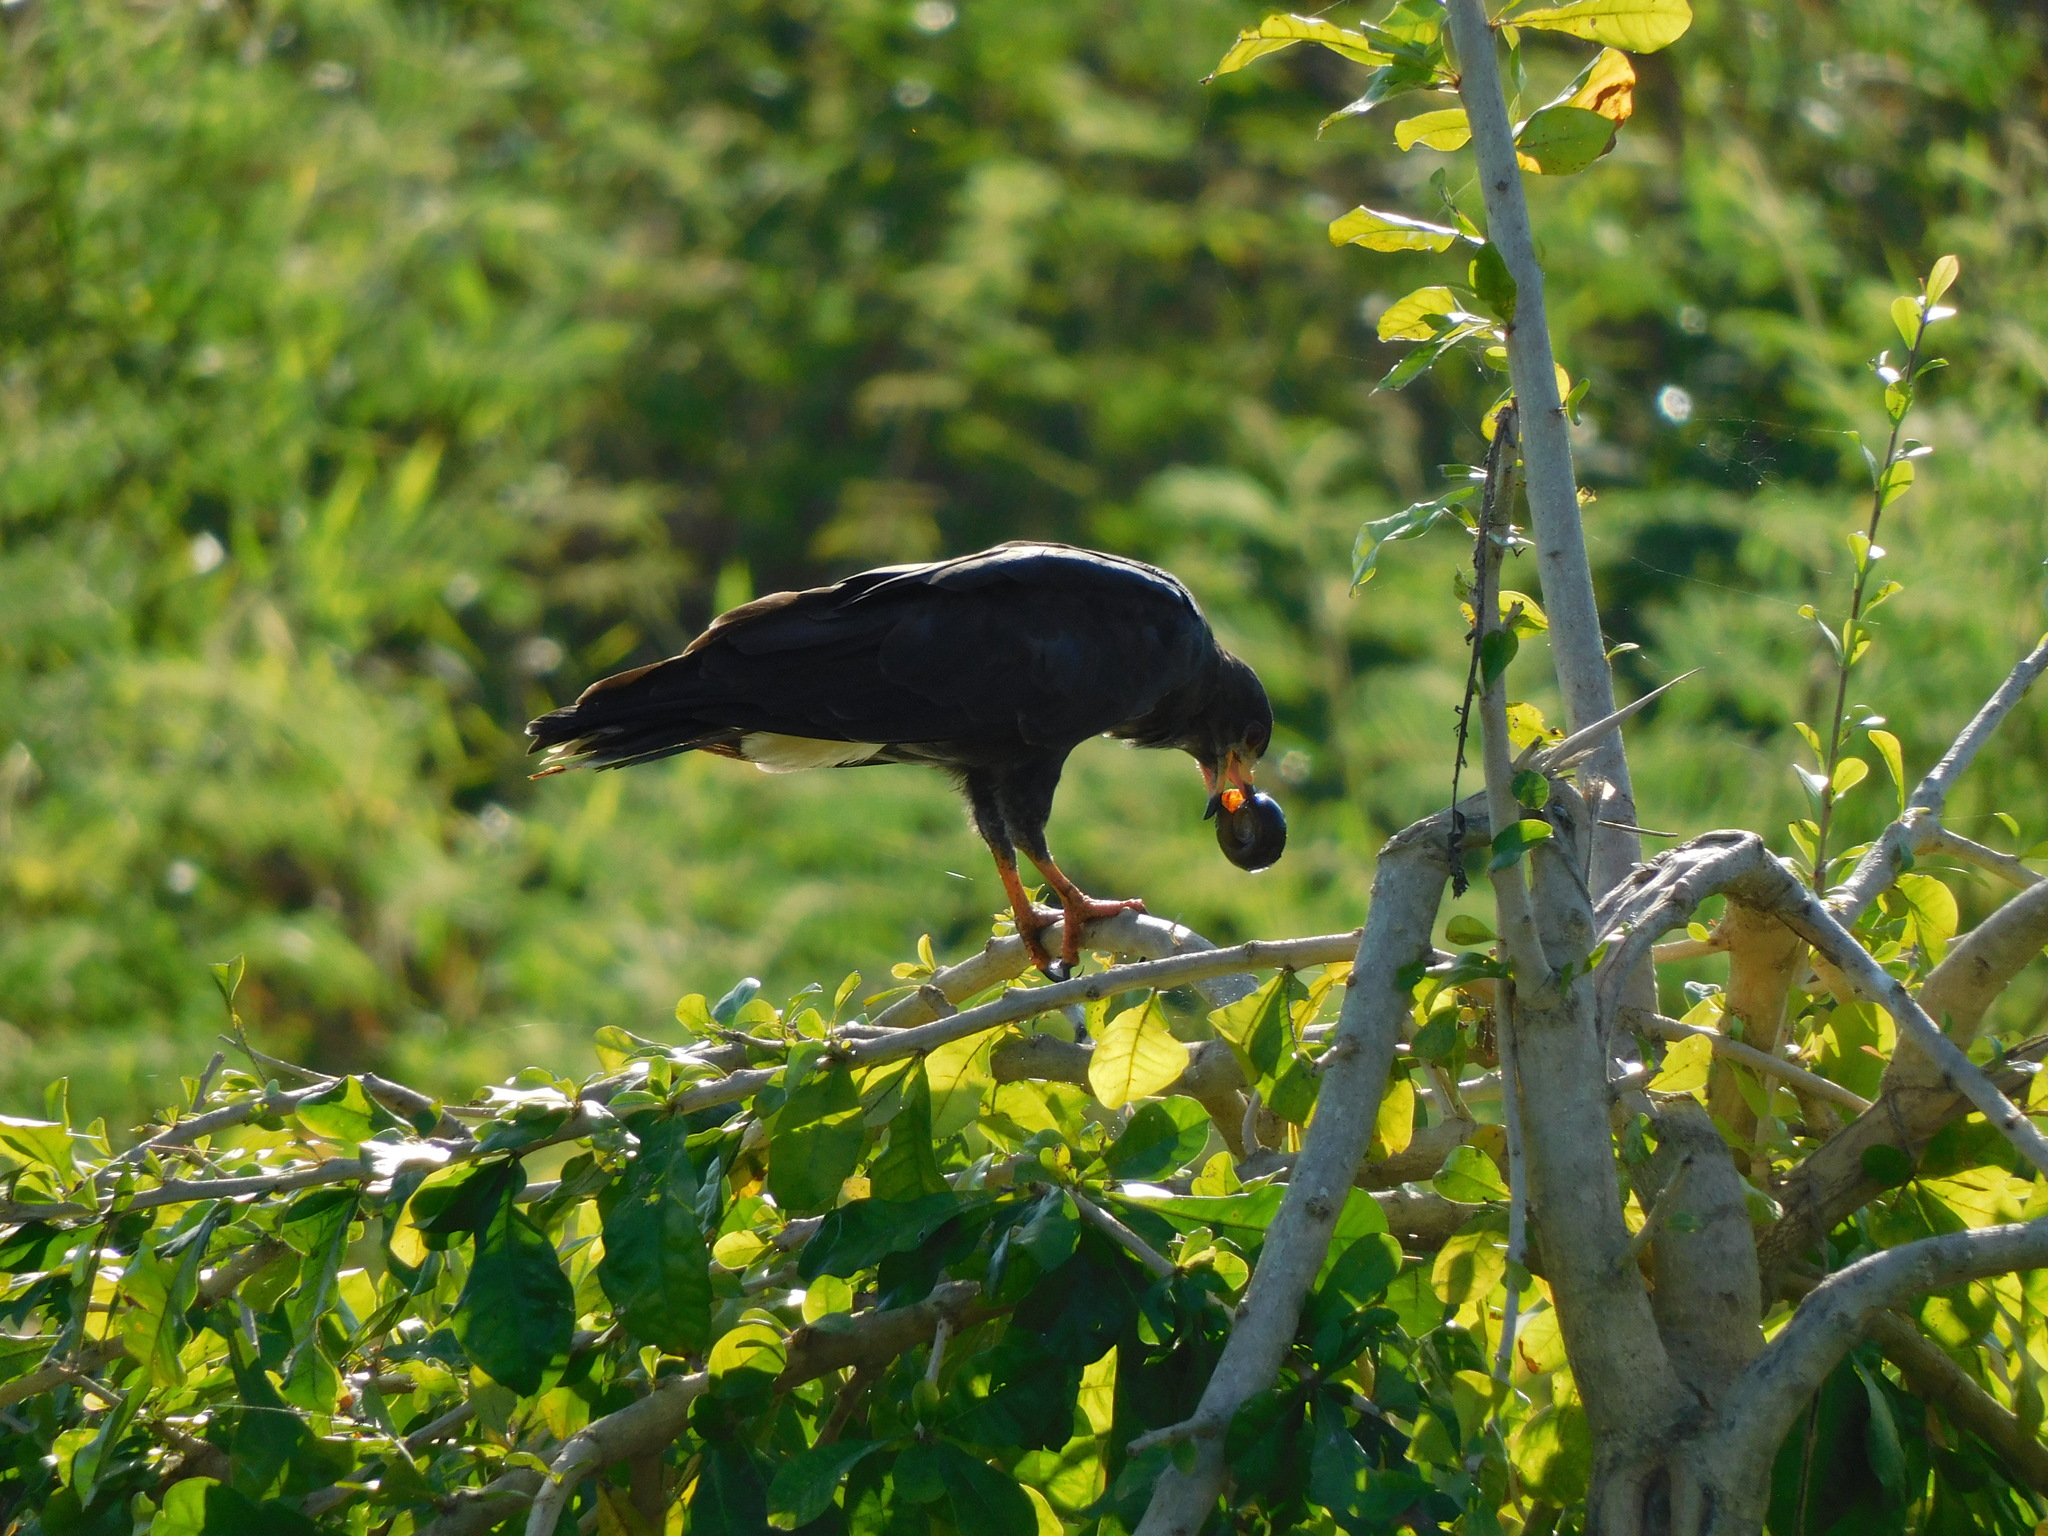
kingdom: Animalia
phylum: Chordata
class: Aves
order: Accipitriformes
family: Accipitridae
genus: Rostrhamus
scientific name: Rostrhamus sociabilis
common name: Snail kite
